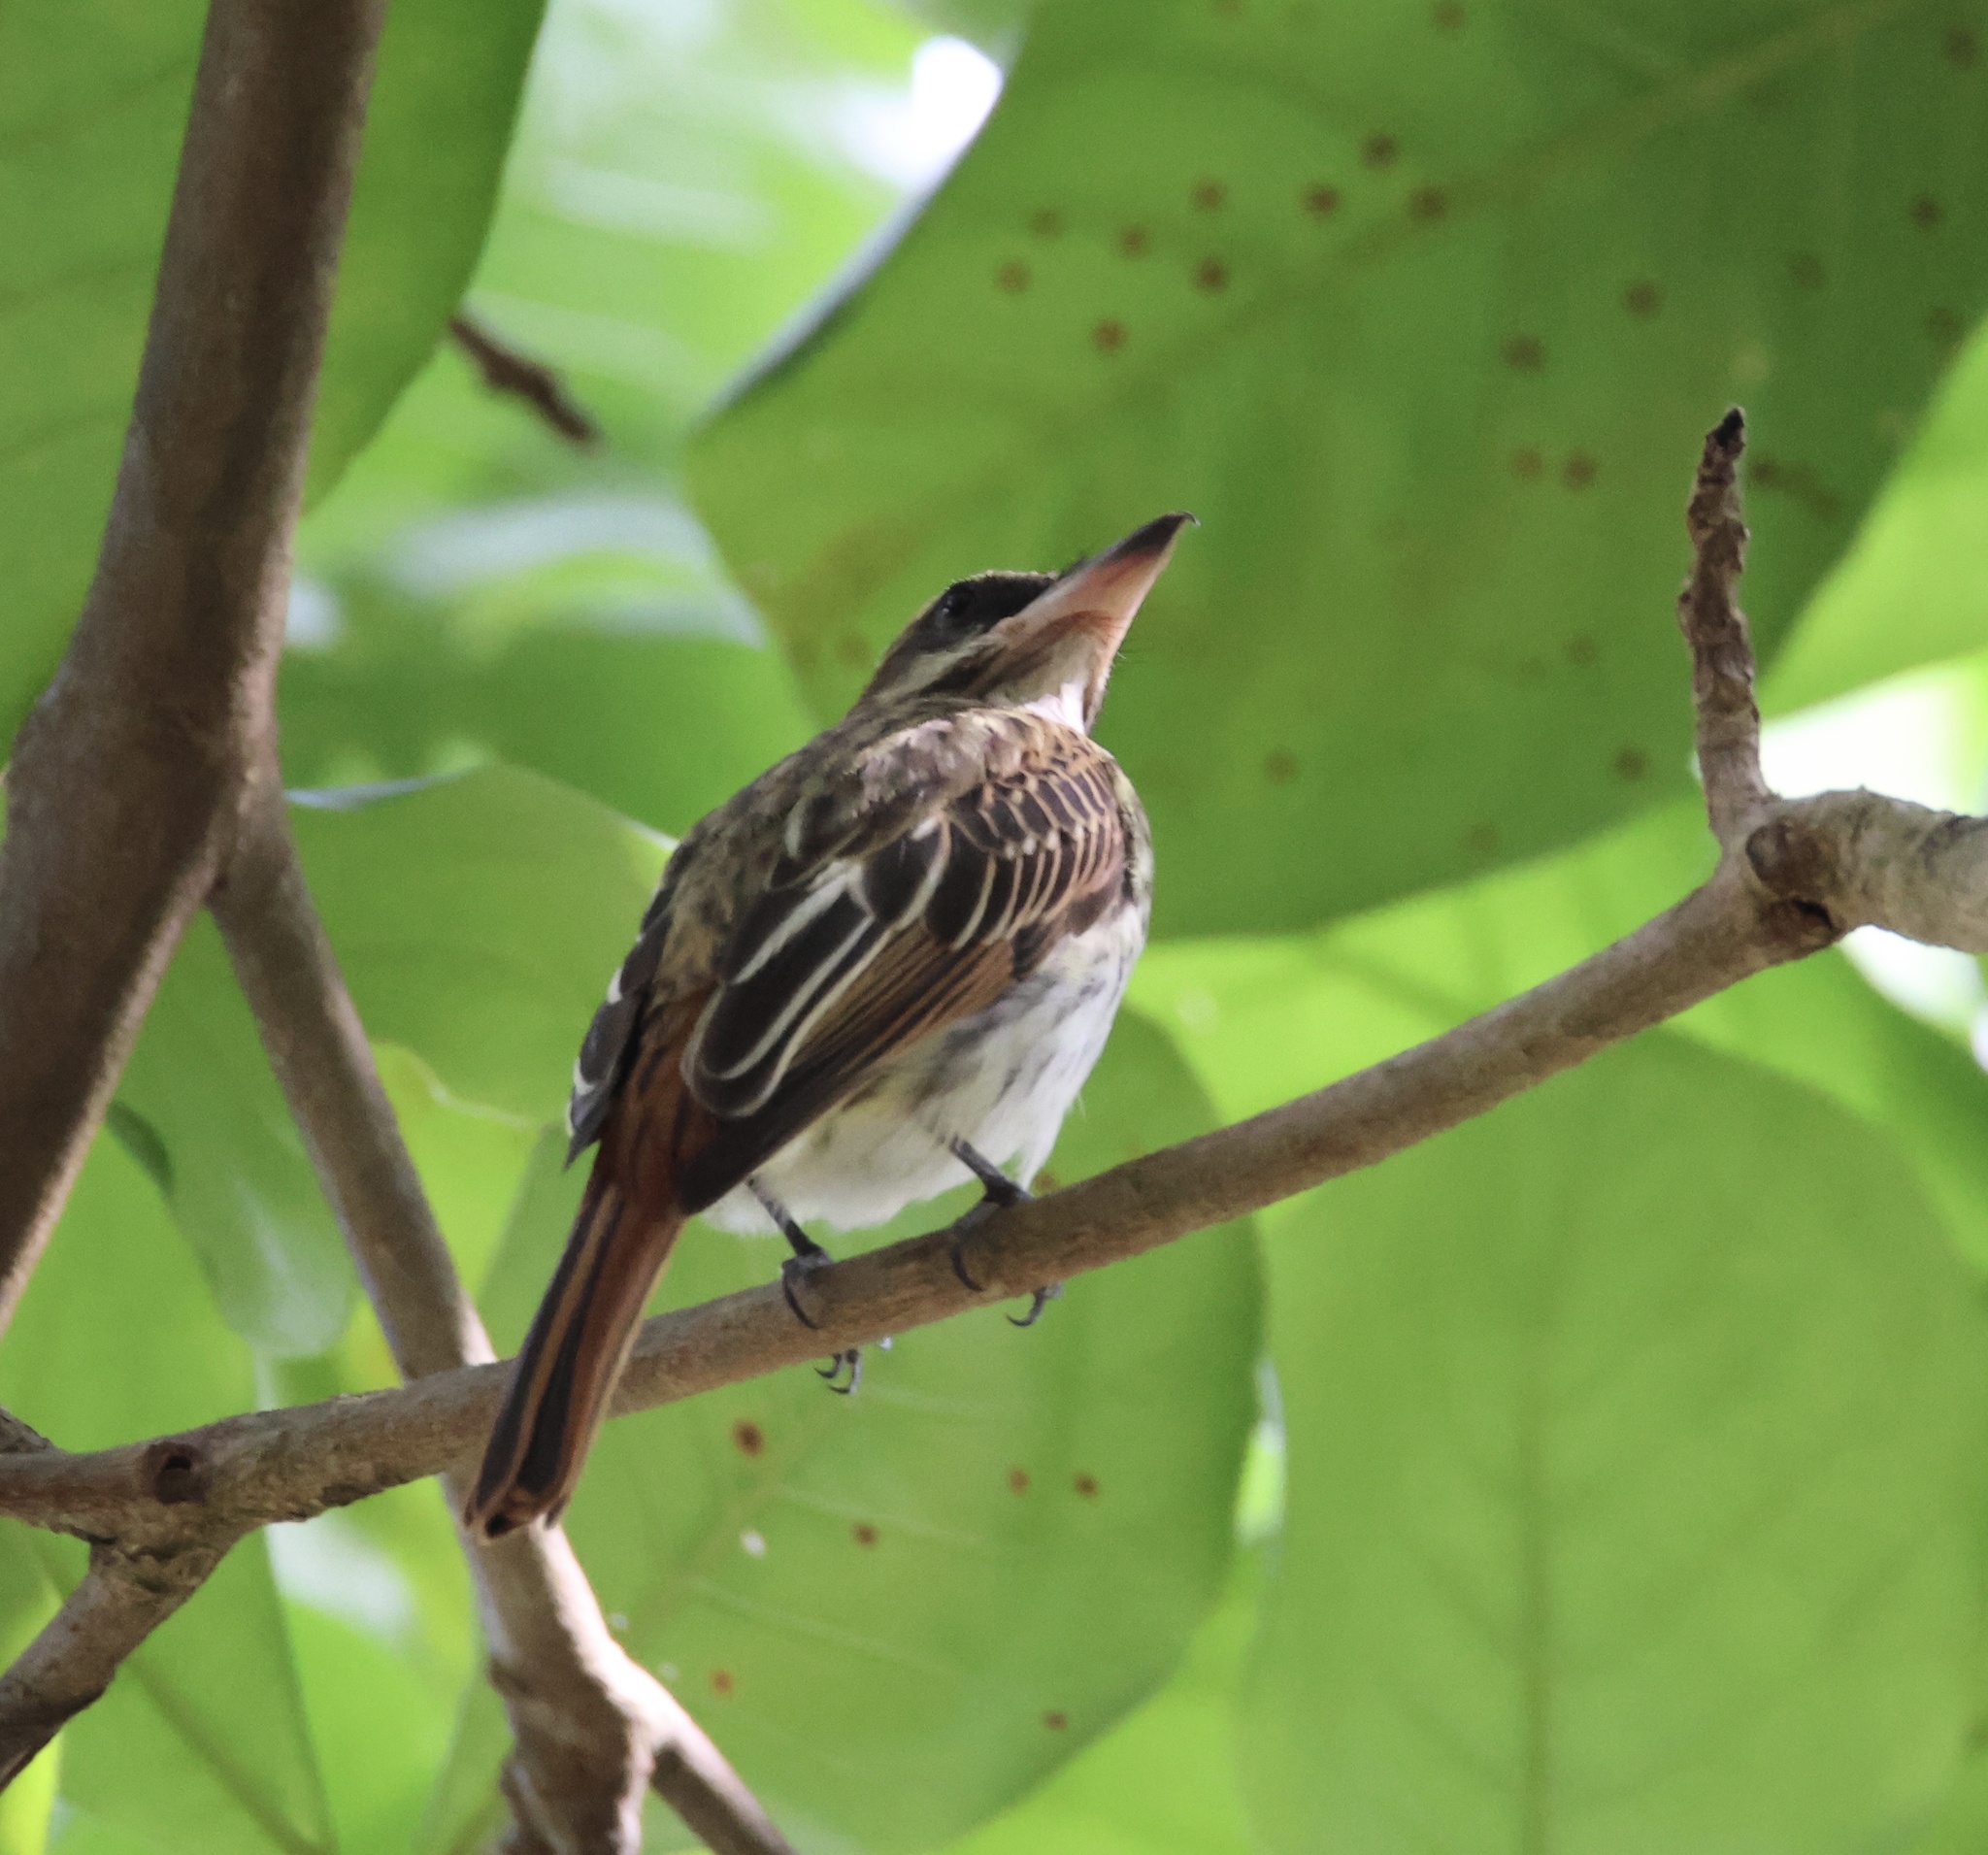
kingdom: Animalia
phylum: Chordata
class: Aves
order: Passeriformes
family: Tyrannidae
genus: Myiodynastes
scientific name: Myiodynastes maculatus
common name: Streaked flycatcher
